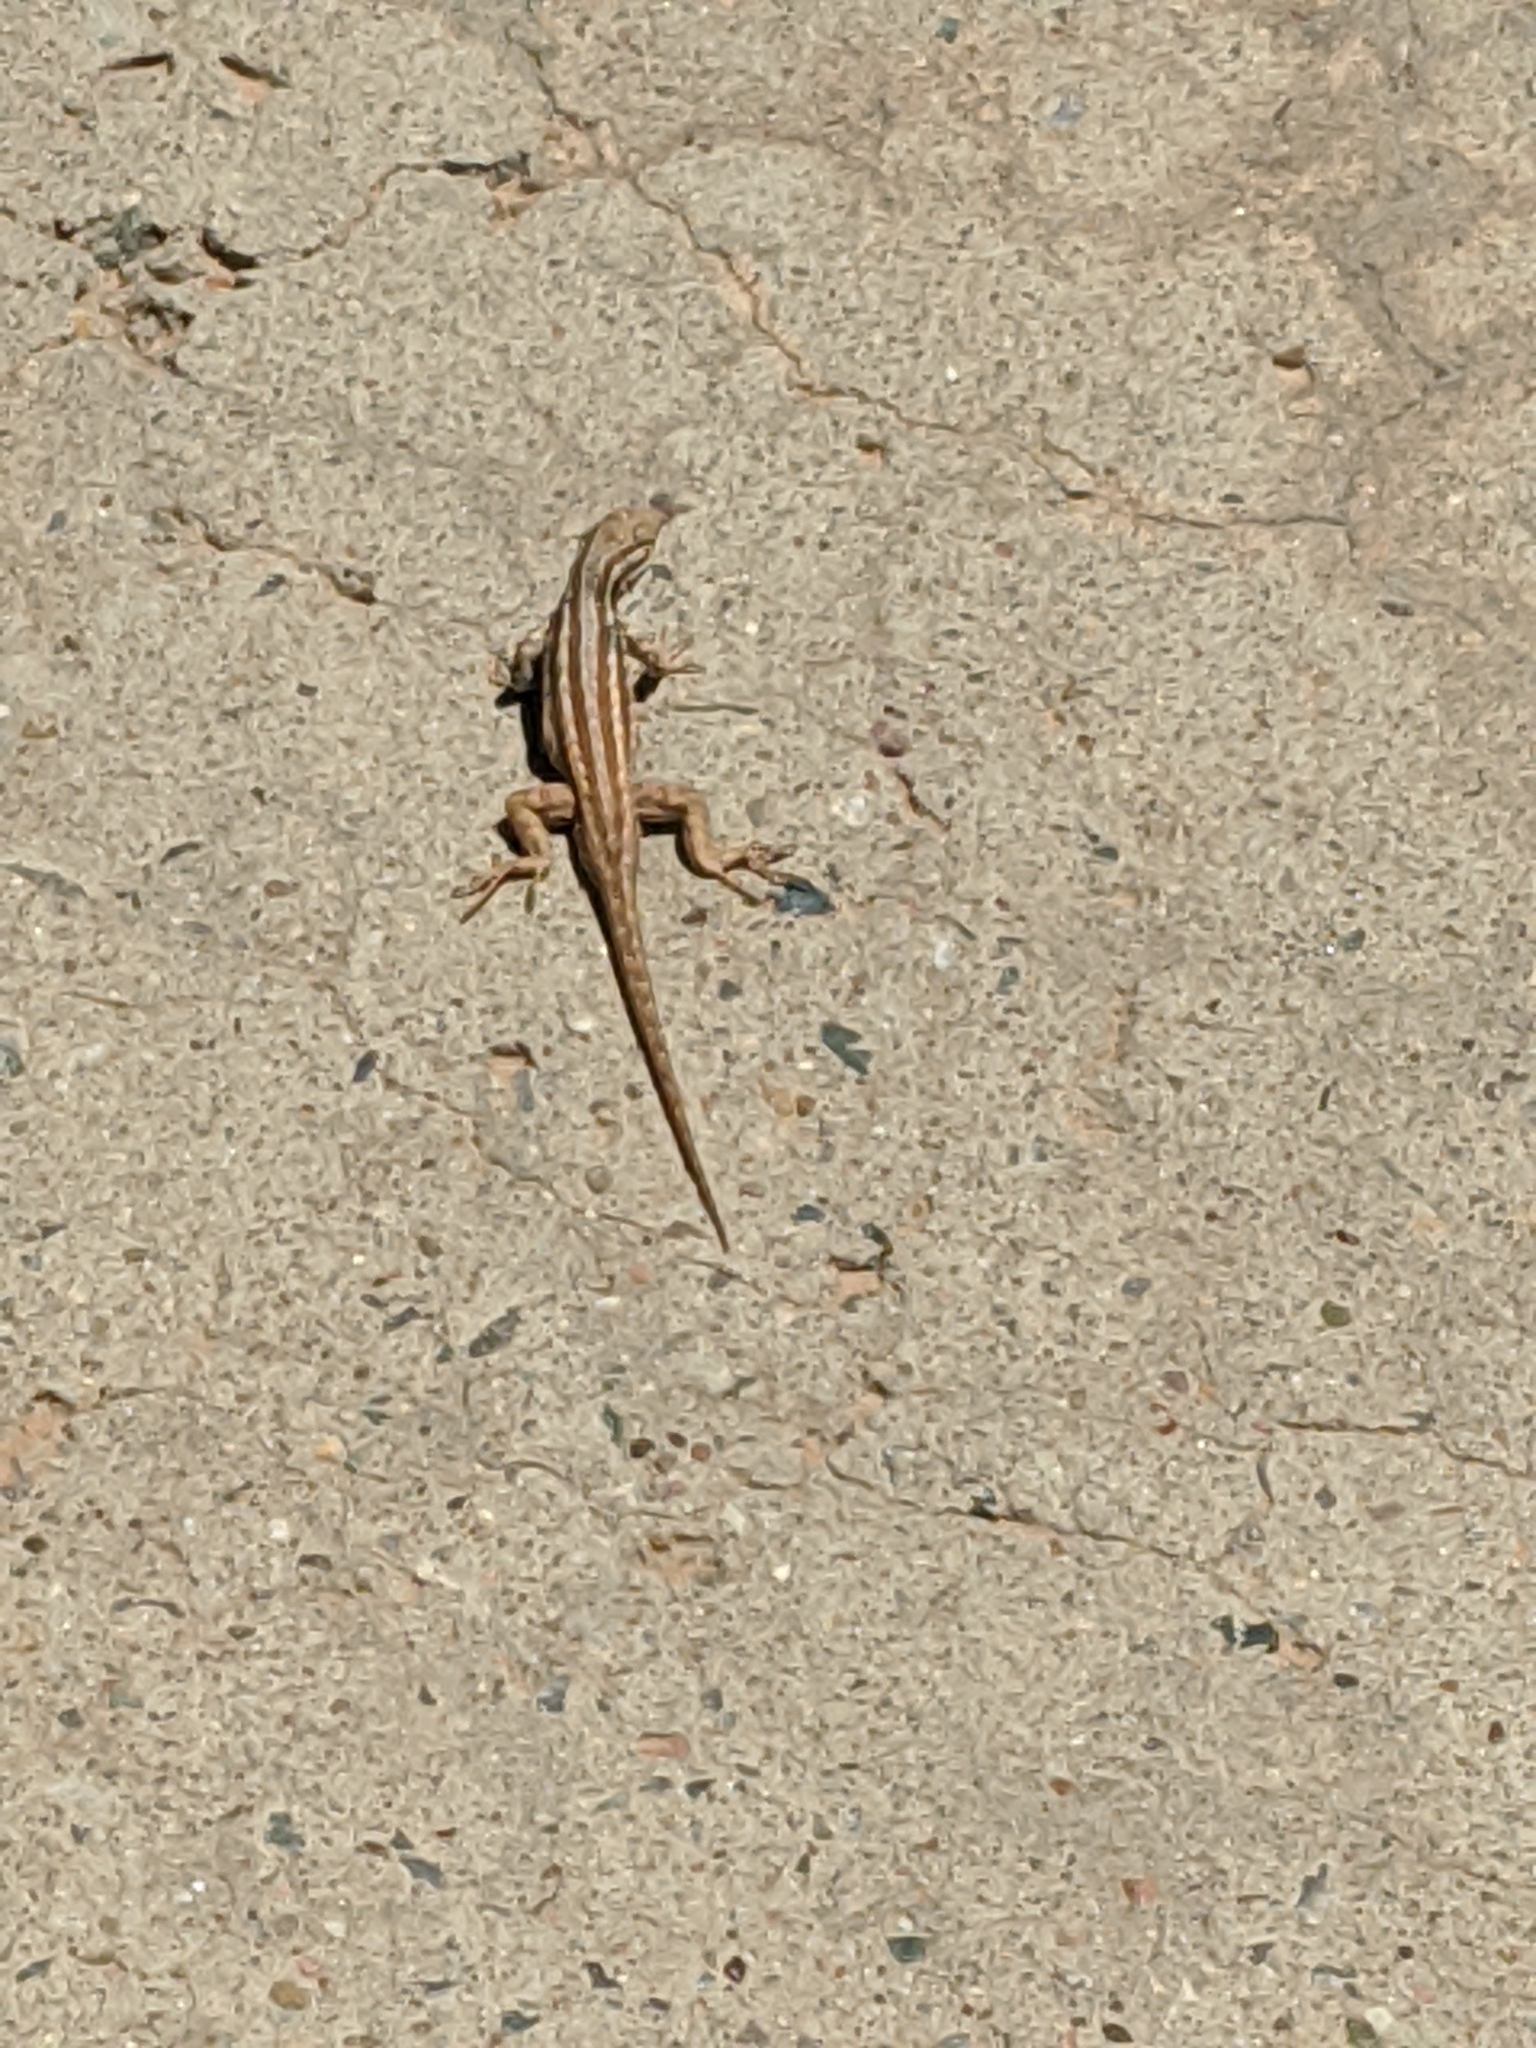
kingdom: Animalia
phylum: Chordata
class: Squamata
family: Phrynosomatidae
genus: Sceloporus
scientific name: Sceloporus graciosus
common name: Sagebrush lizard
